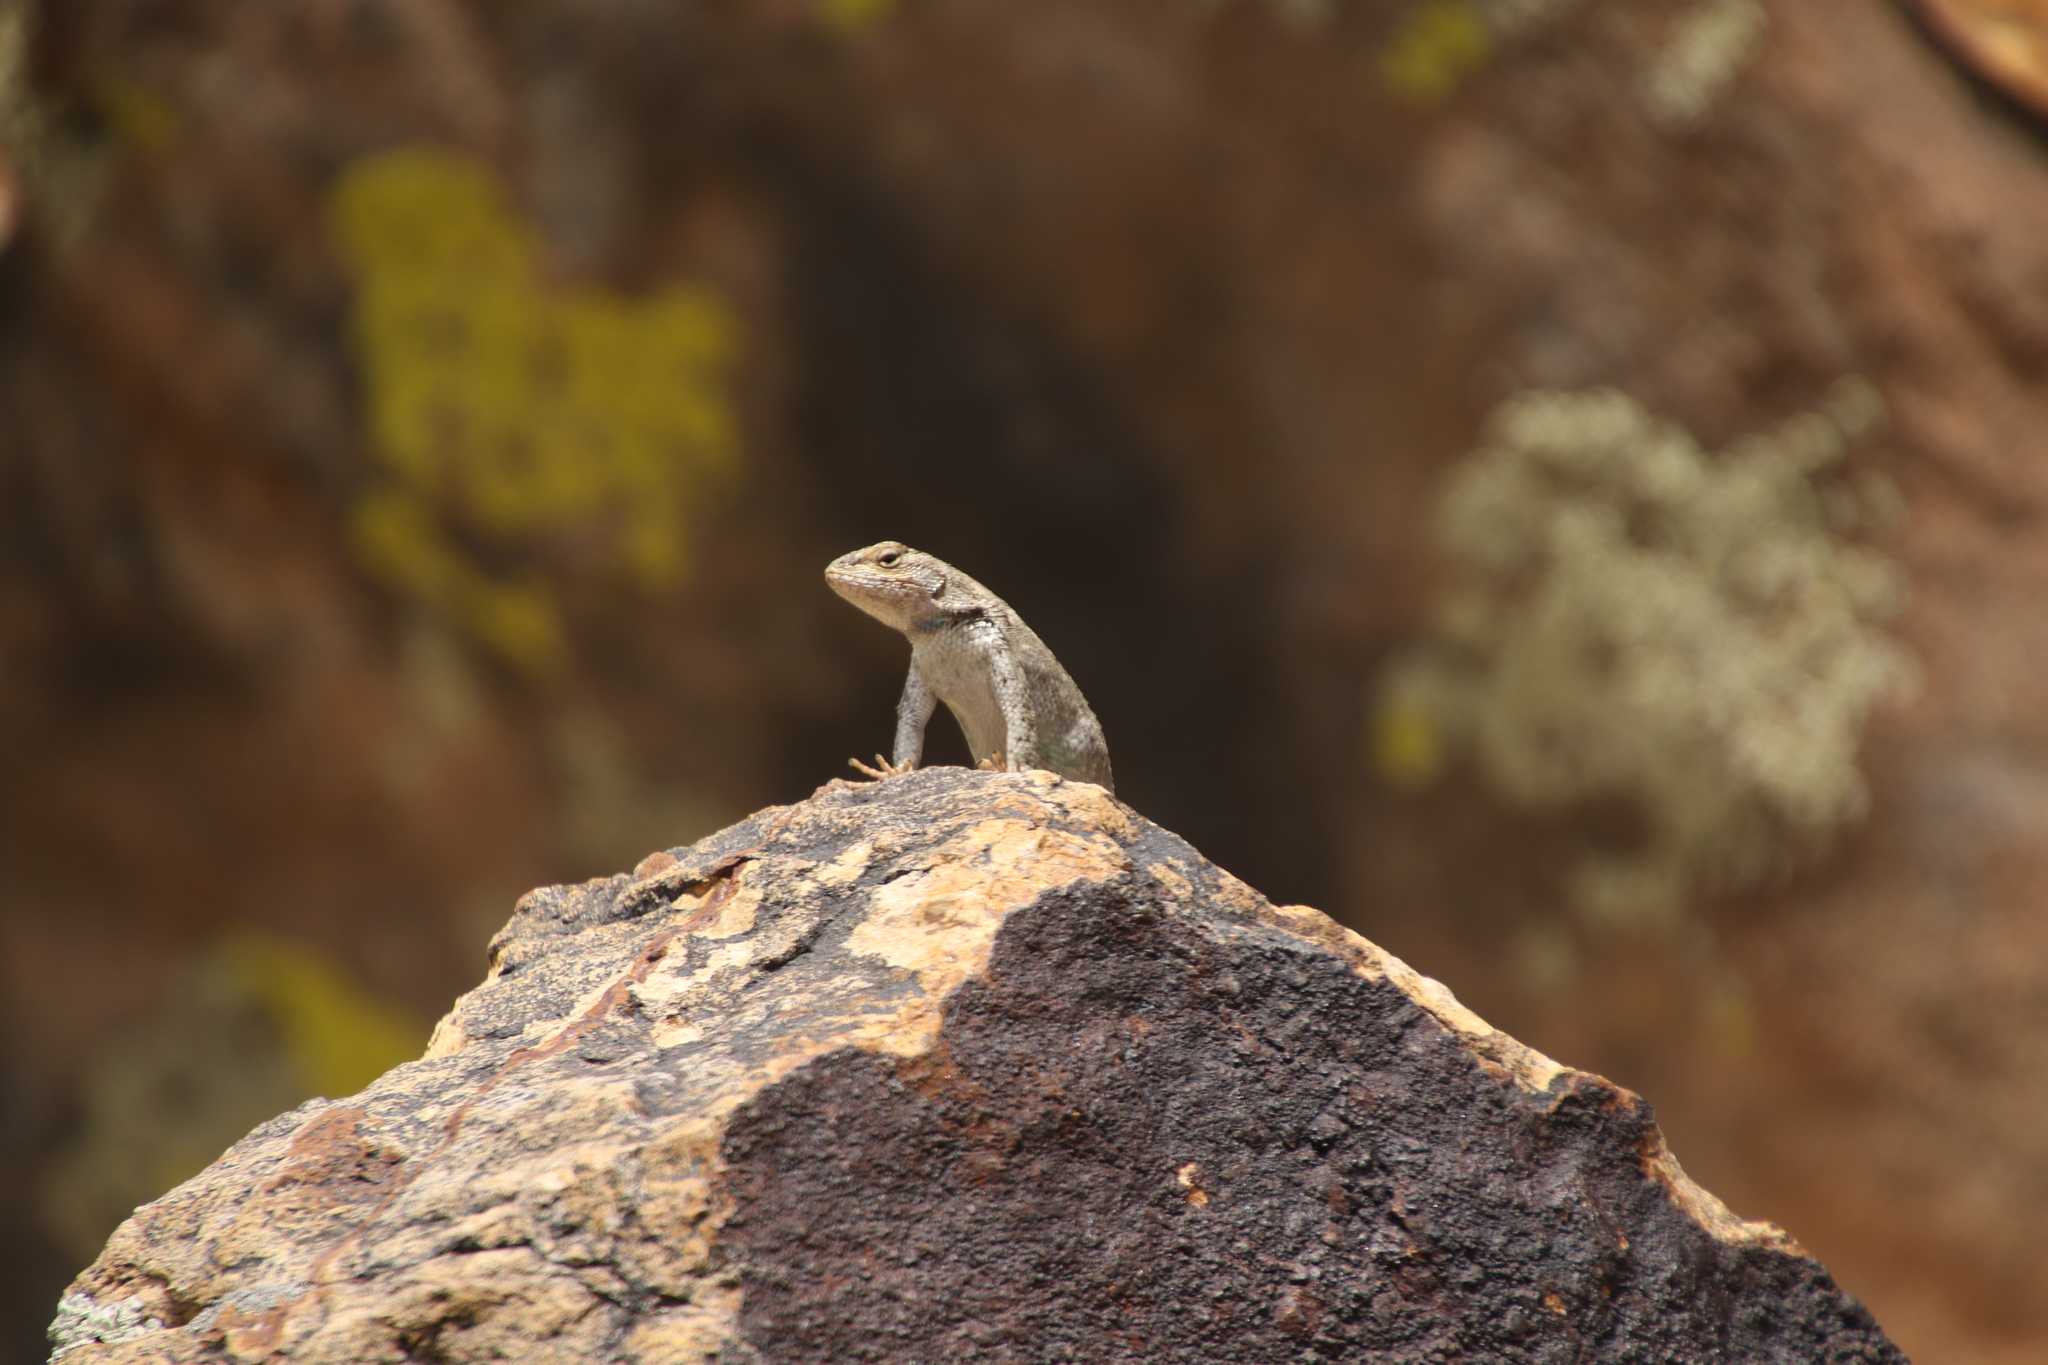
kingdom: Animalia
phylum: Chordata
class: Squamata
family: Phrynosomatidae
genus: Sceloporus
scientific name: Sceloporus consobrinus
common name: Southern prairie lizard
